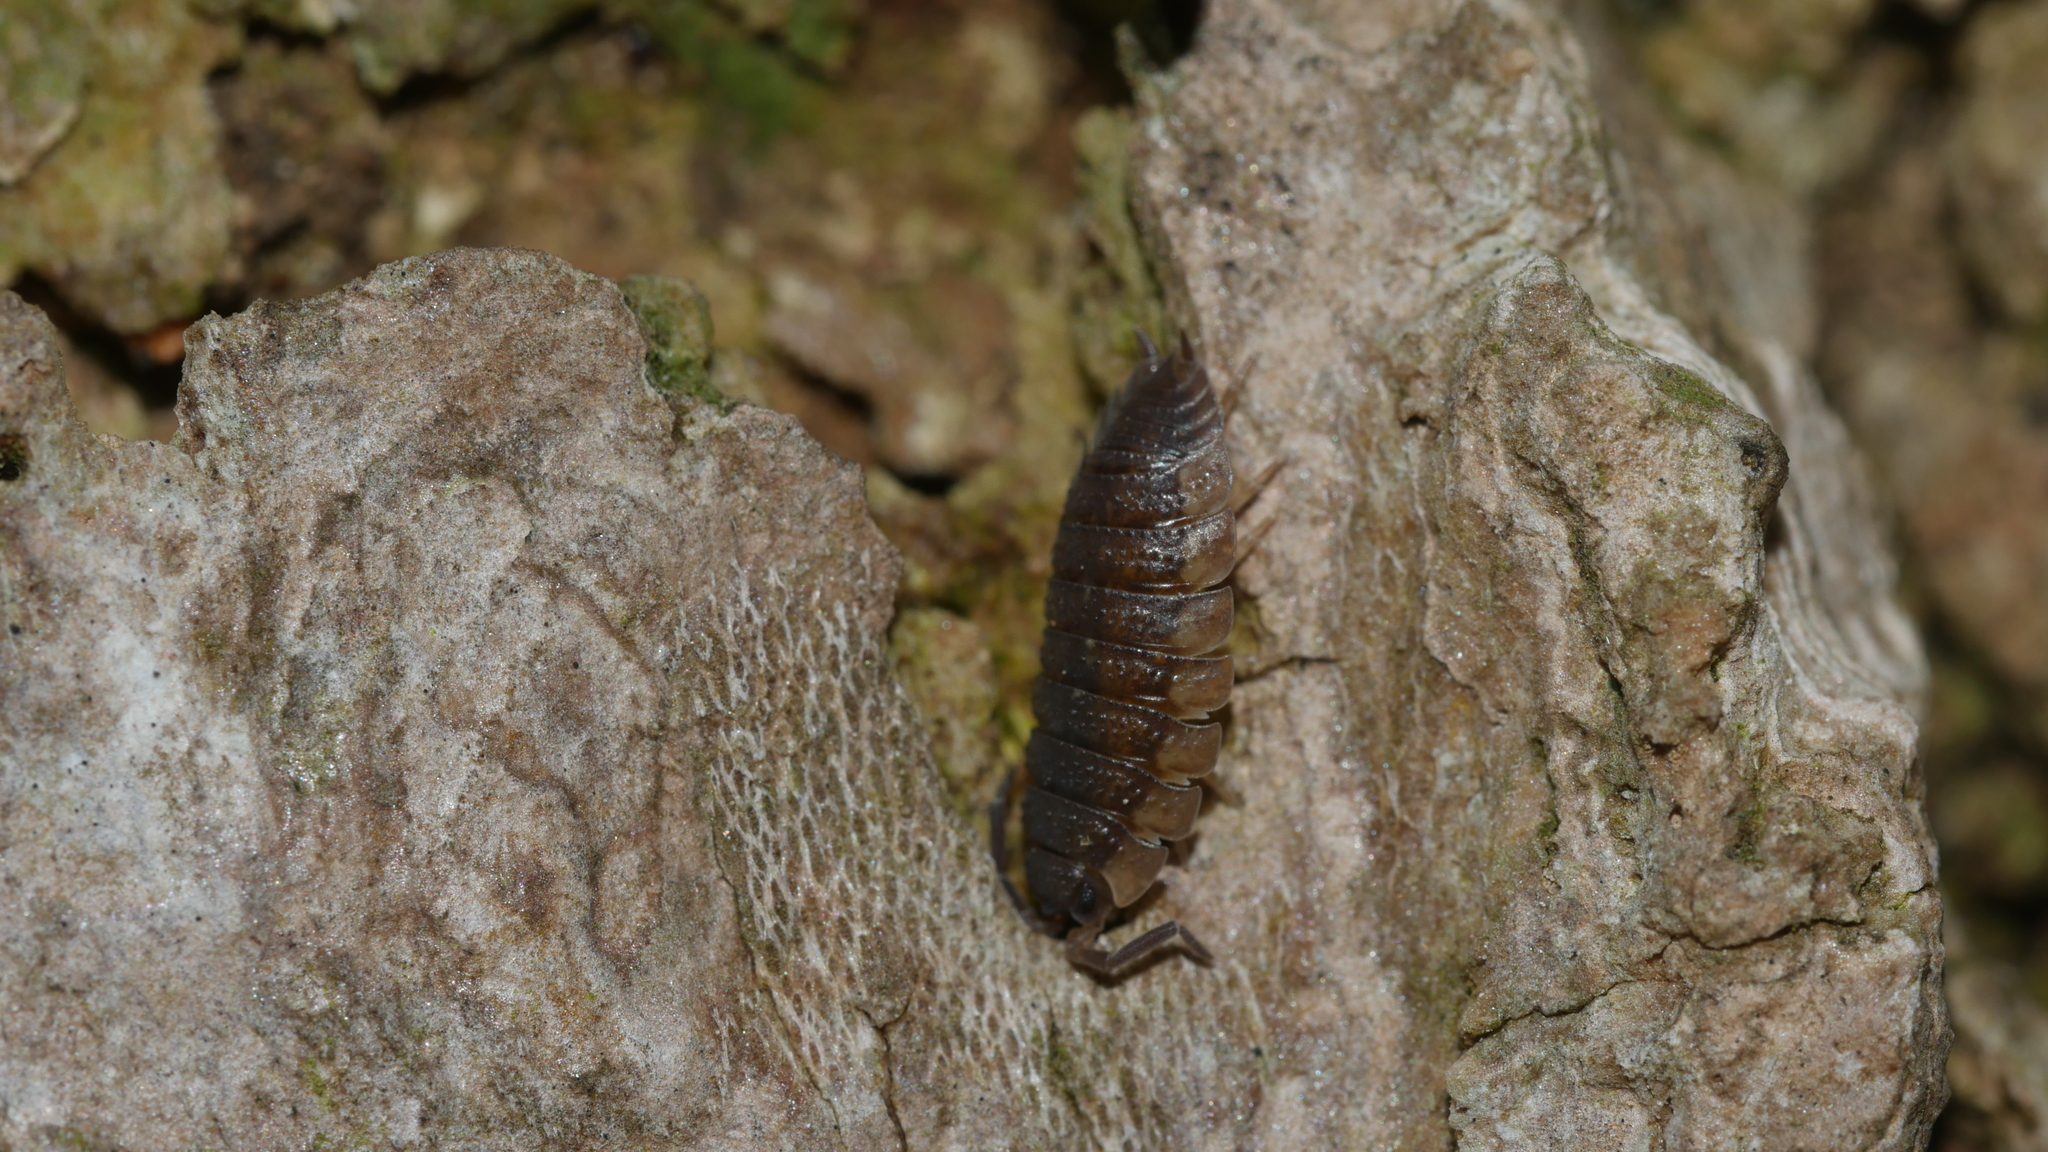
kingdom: Animalia
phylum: Arthropoda
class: Malacostraca
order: Isopoda
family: Porcellionidae
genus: Porcellio
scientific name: Porcellio scaber
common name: Common rough woodlouse
